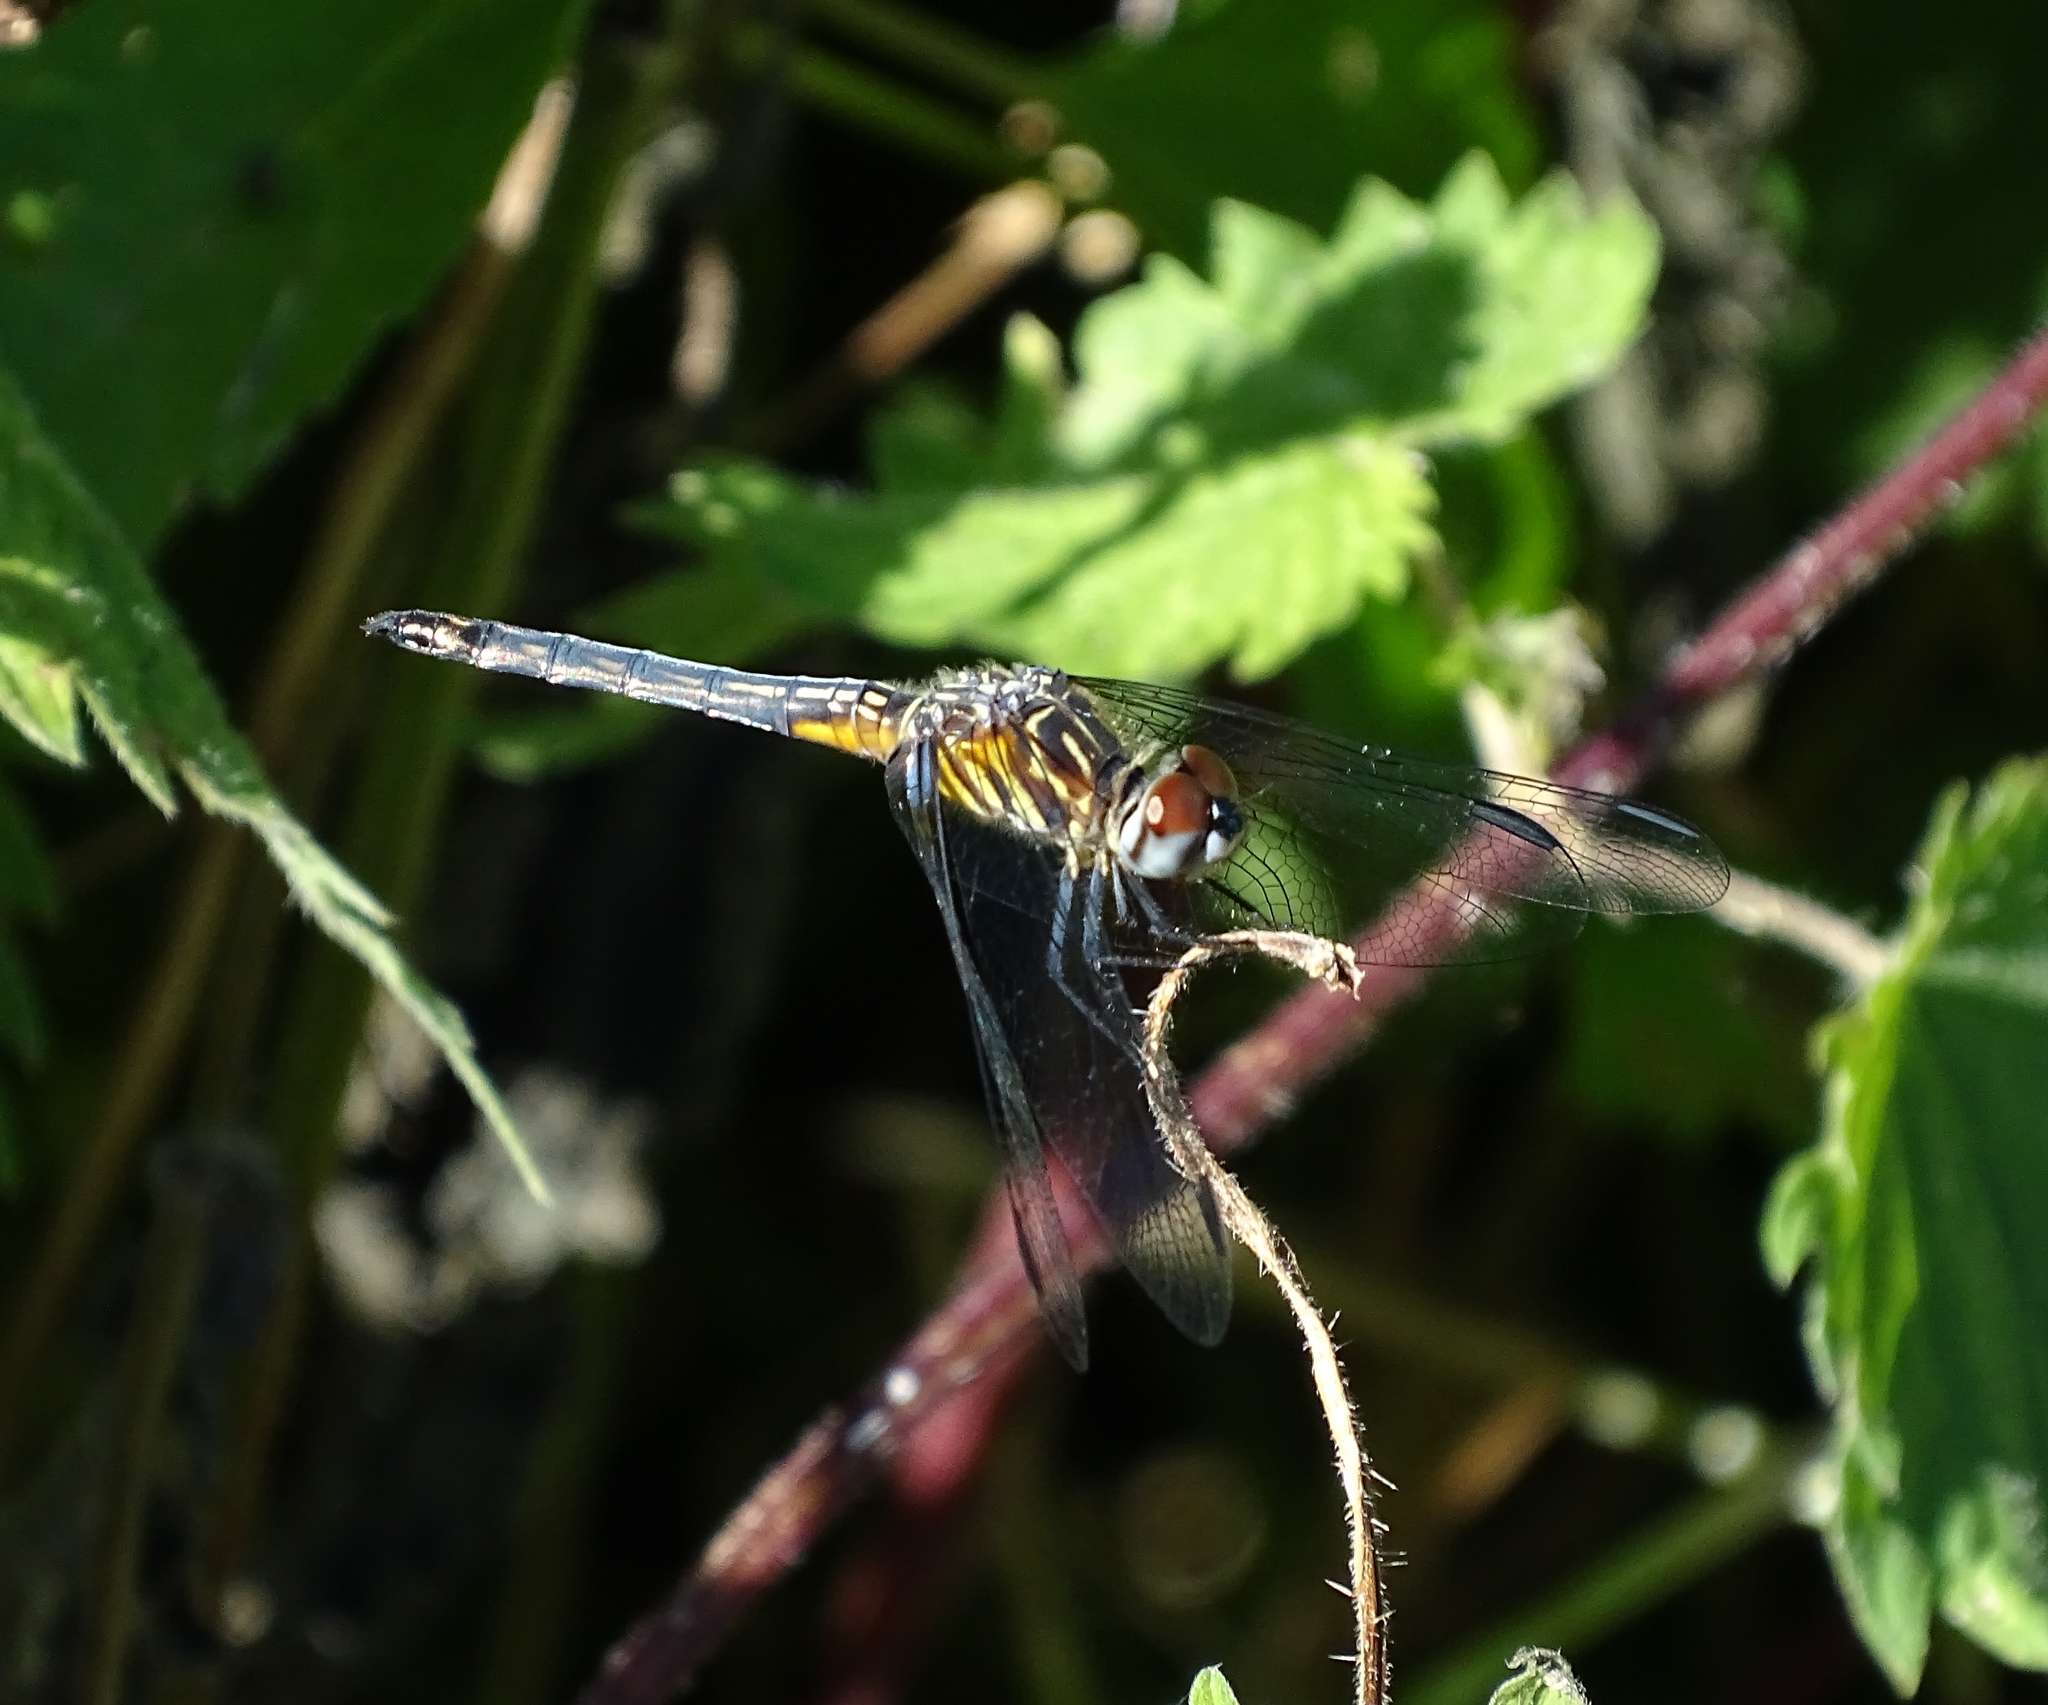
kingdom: Animalia
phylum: Arthropoda
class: Insecta
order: Odonata
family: Libellulidae
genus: Pachydiplax
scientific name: Pachydiplax longipennis
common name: Blue dasher
